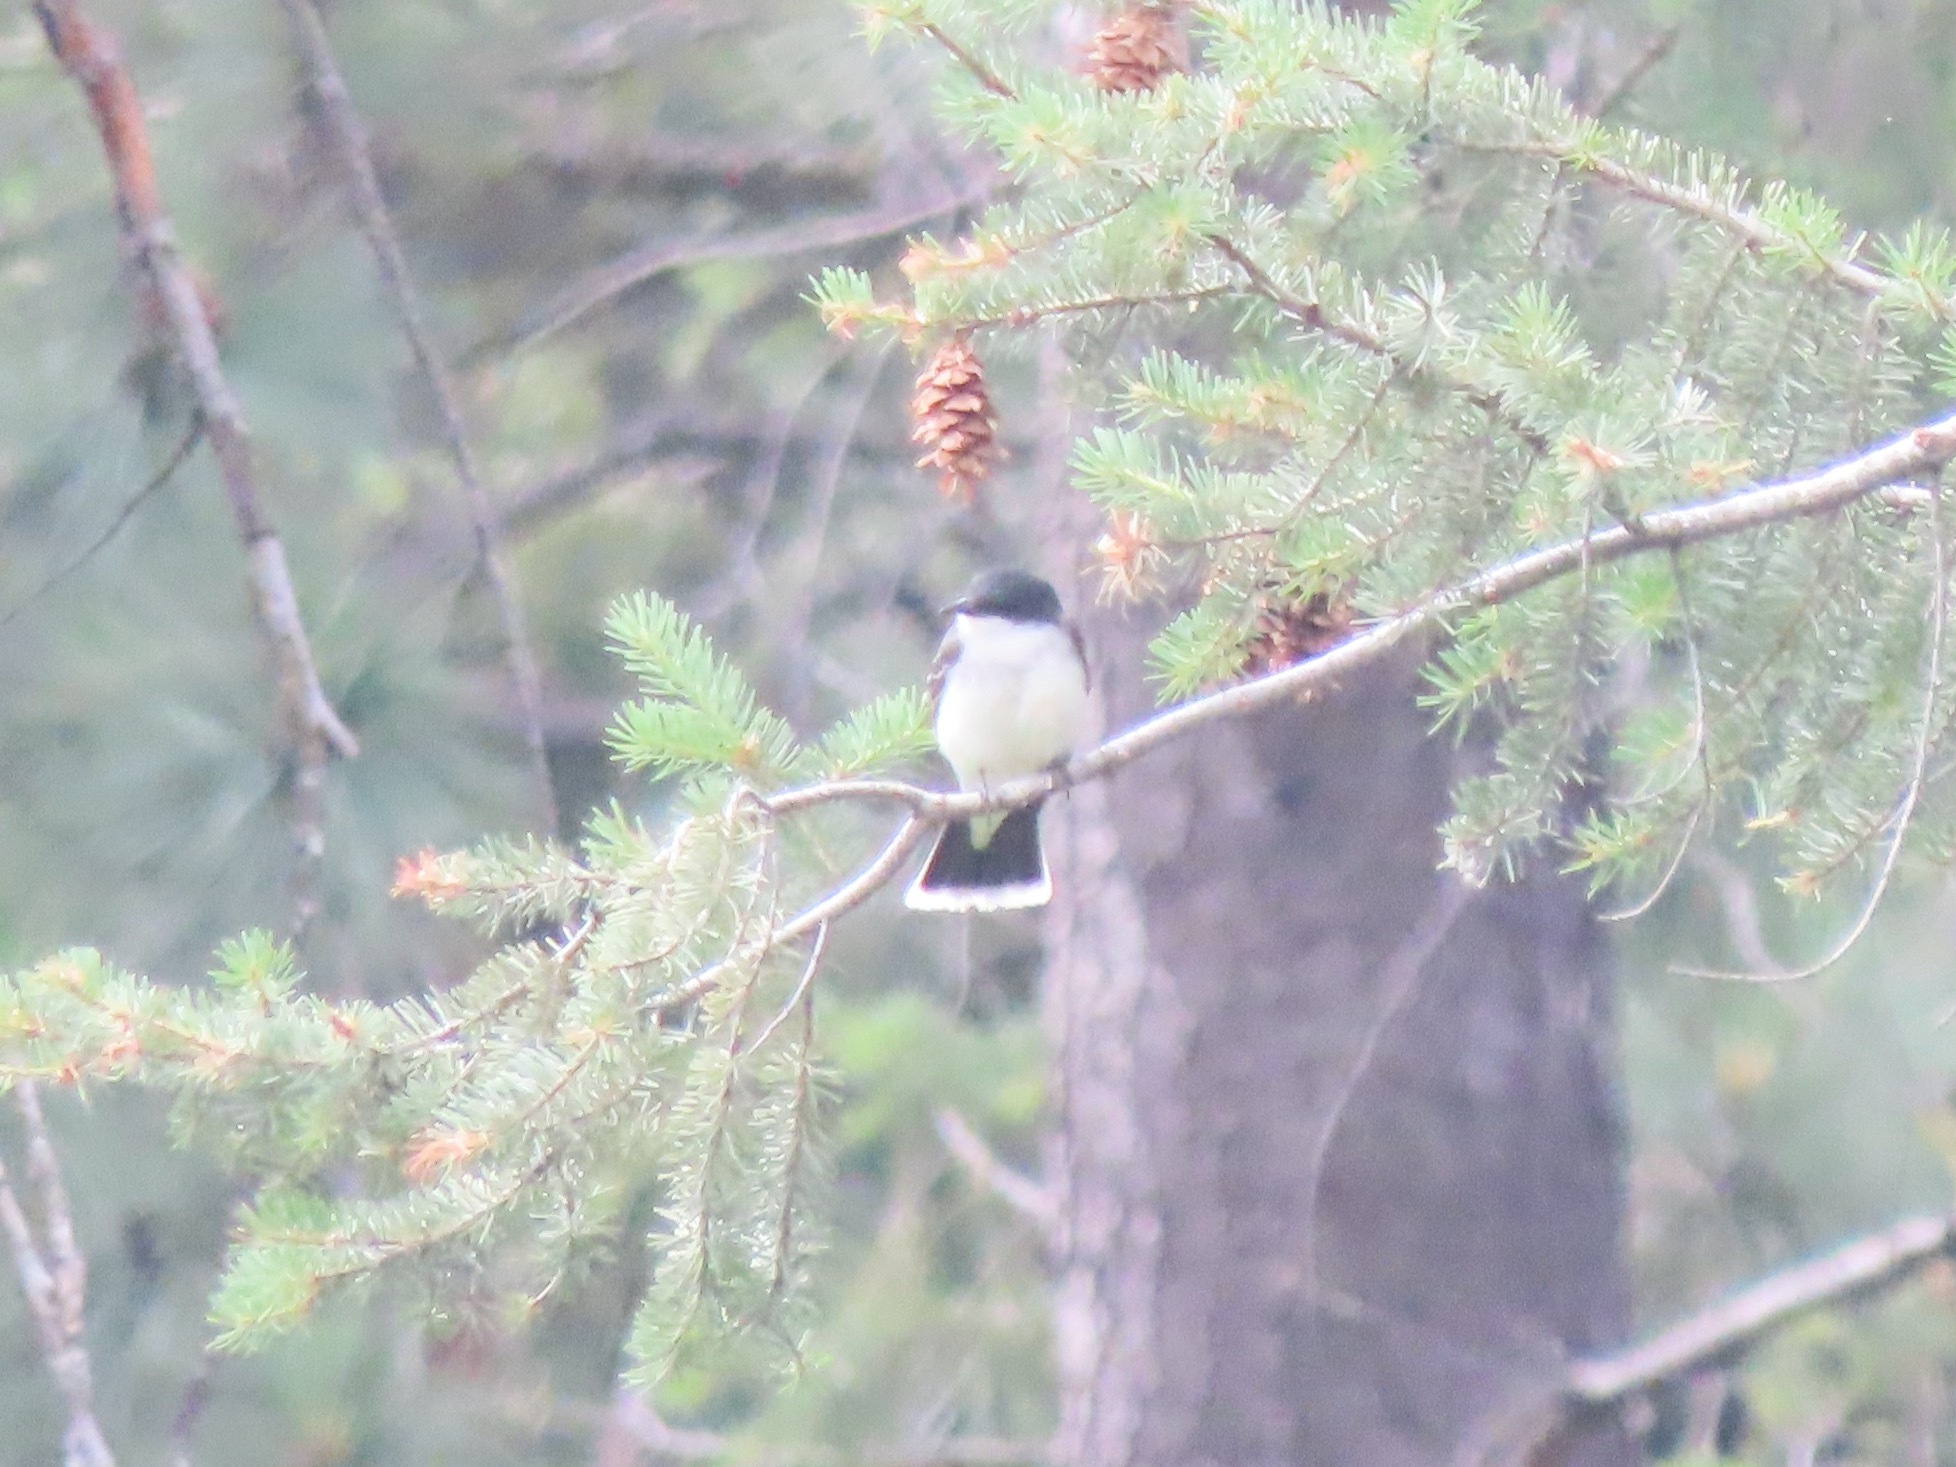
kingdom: Animalia
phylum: Chordata
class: Aves
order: Passeriformes
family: Tyrannidae
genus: Tyrannus
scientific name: Tyrannus tyrannus
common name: Eastern kingbird
